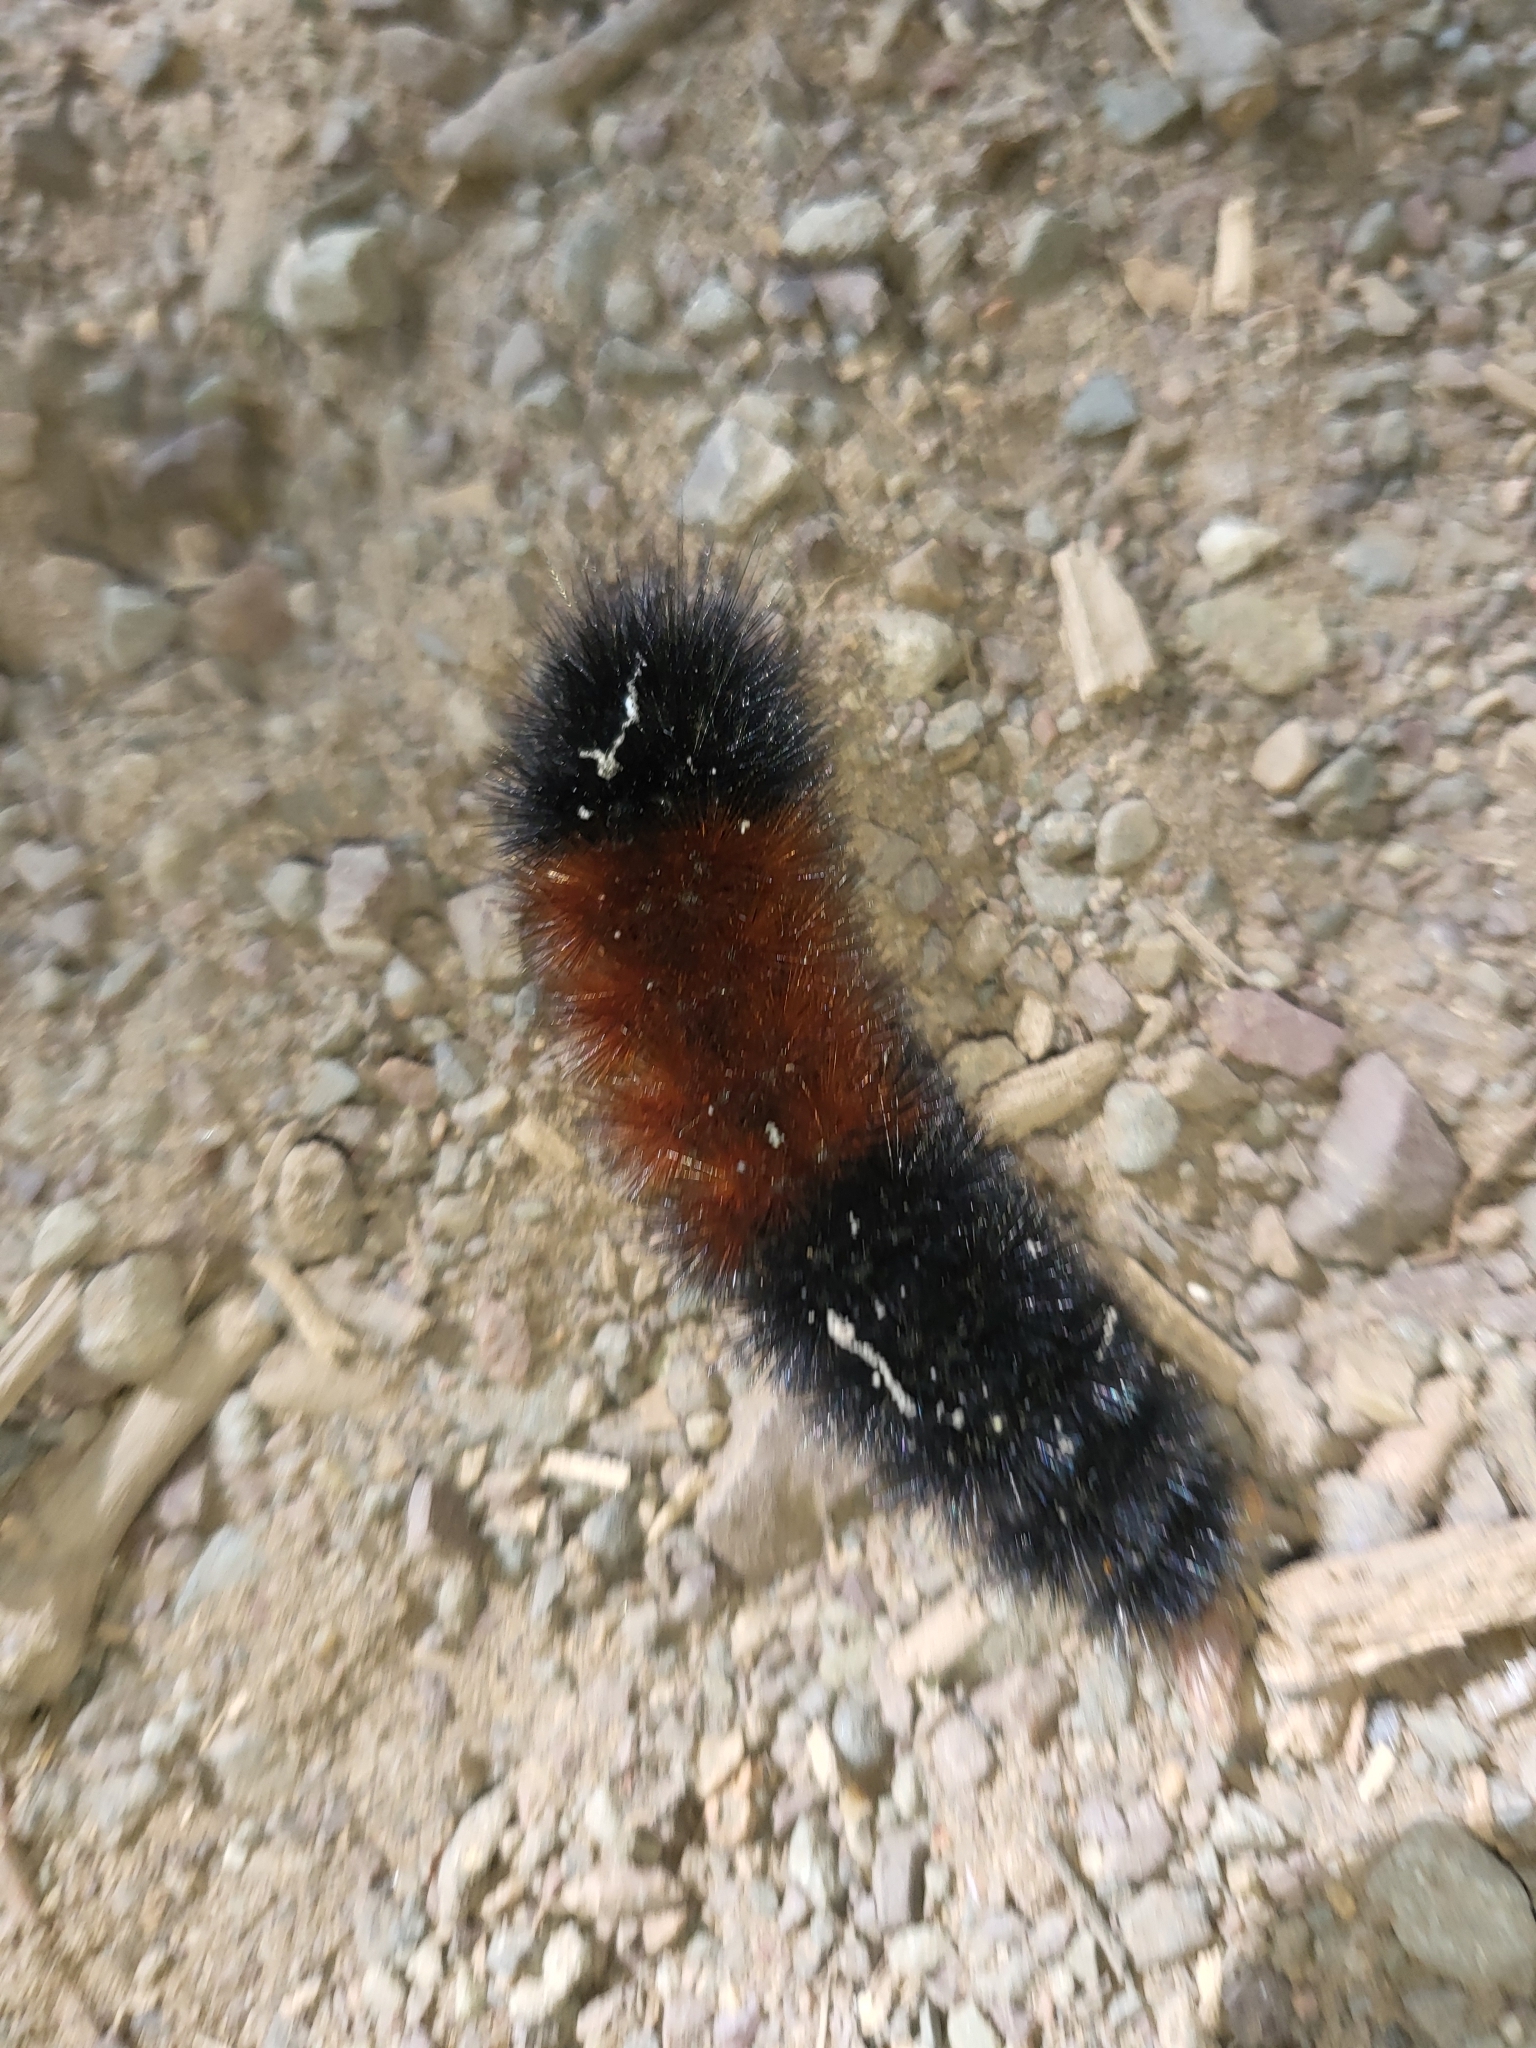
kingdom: Animalia
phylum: Arthropoda
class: Insecta
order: Lepidoptera
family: Erebidae
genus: Pyrrharctia
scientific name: Pyrrharctia isabella
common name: Isabella tiger moth
